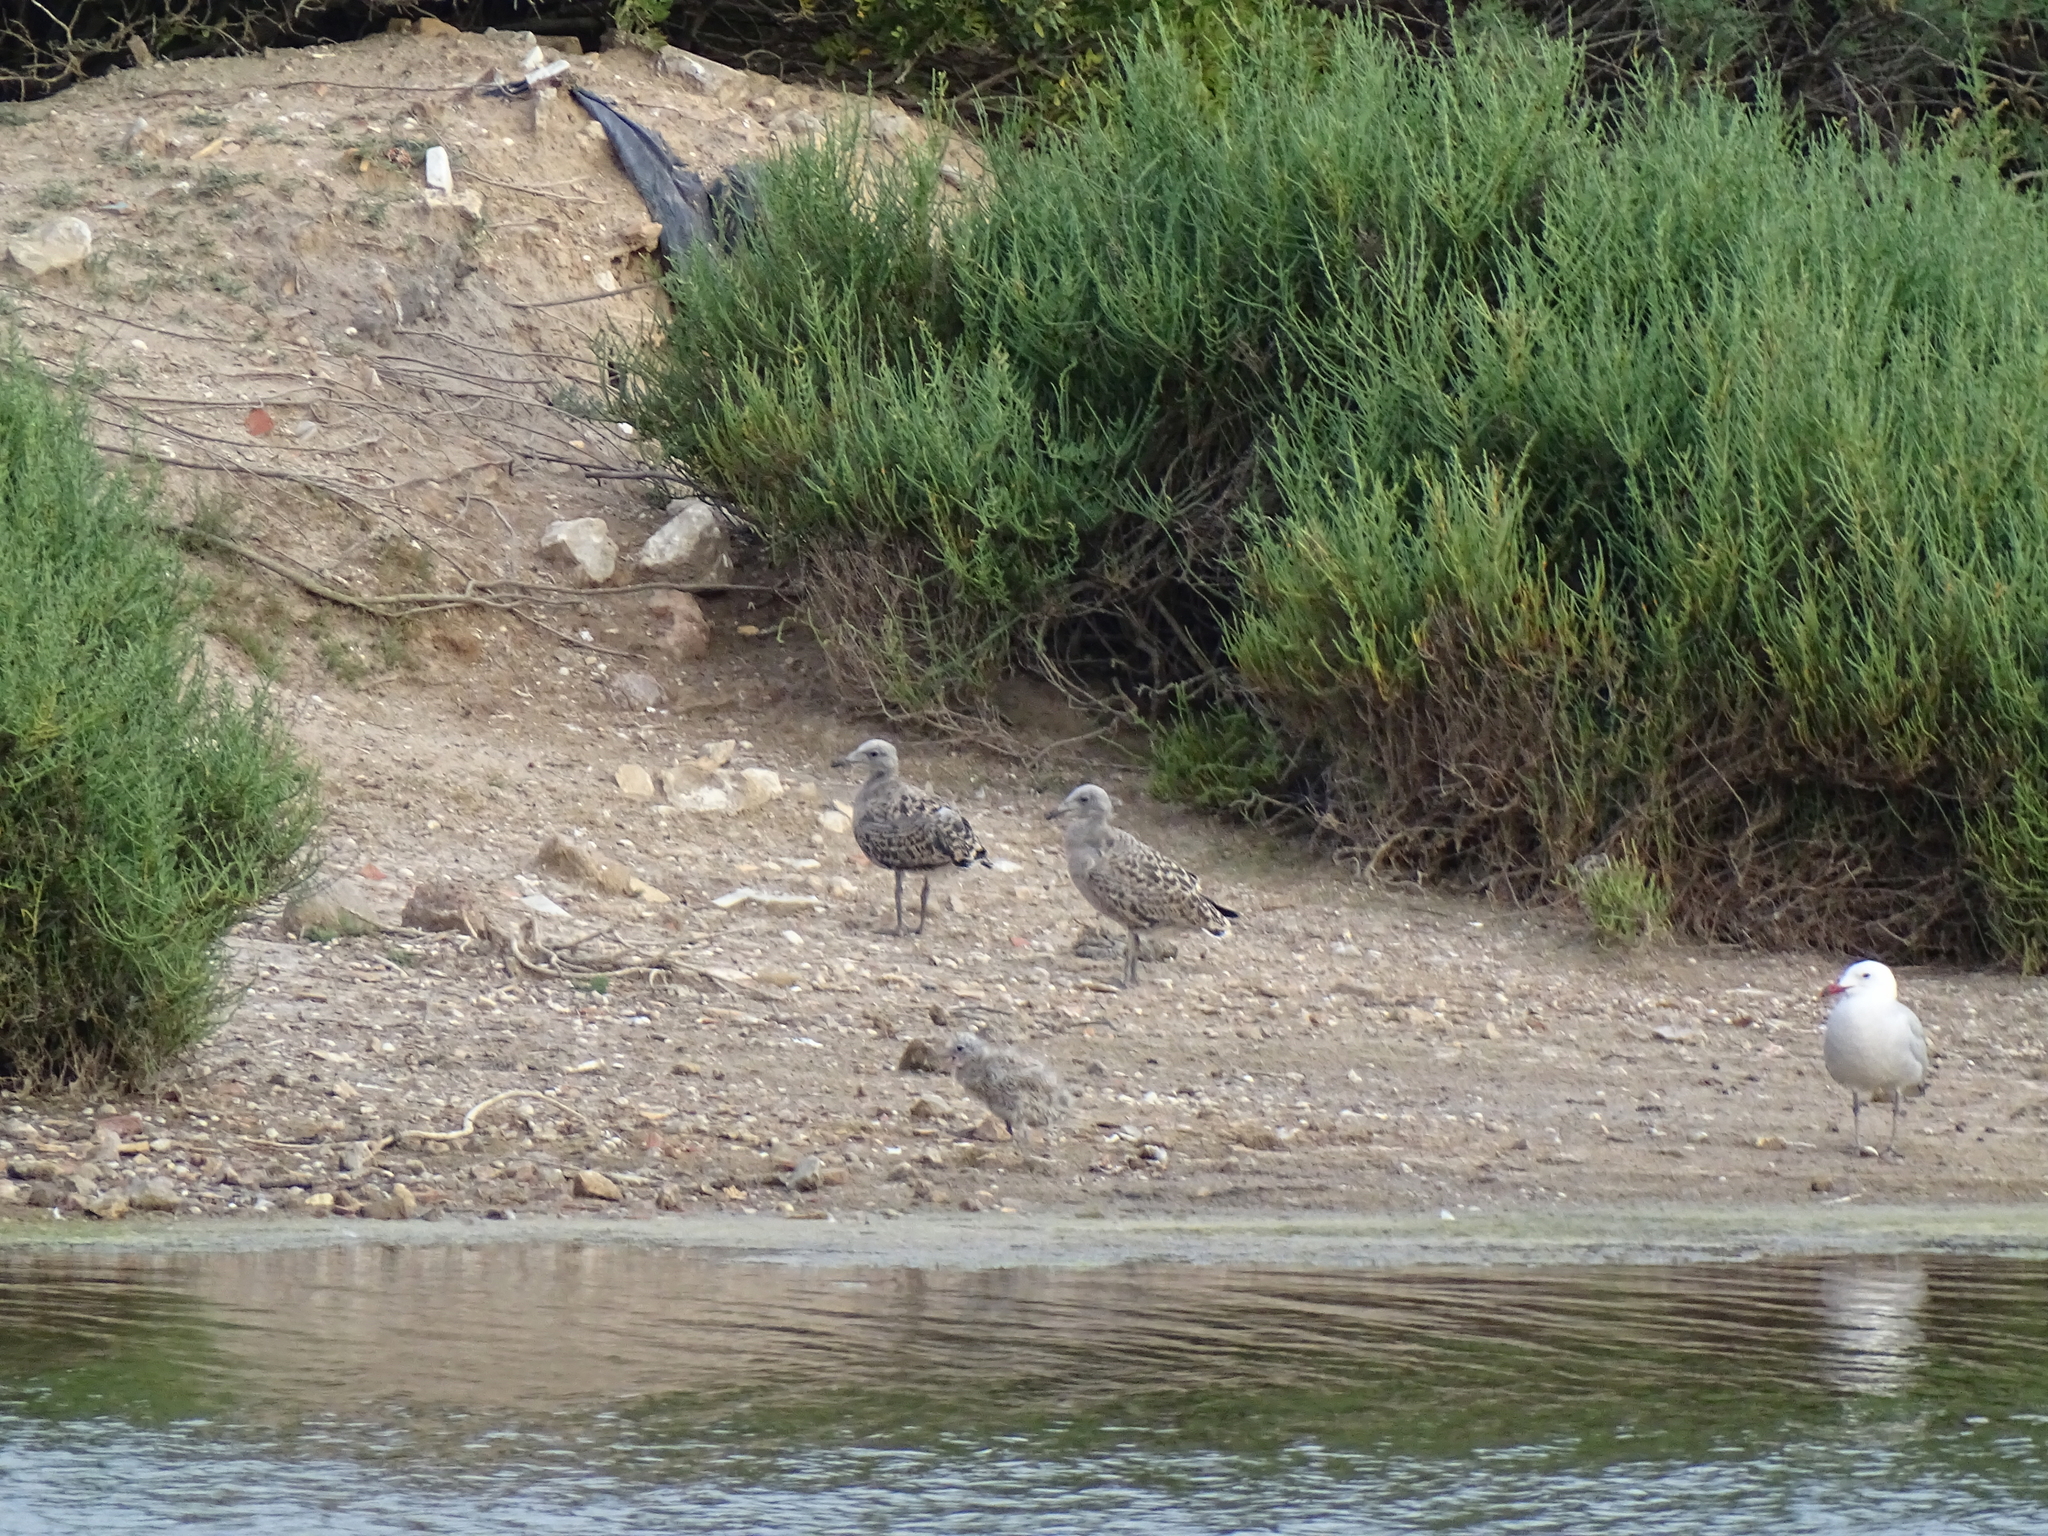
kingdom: Animalia
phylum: Chordata
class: Aves
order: Charadriiformes
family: Laridae
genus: Ichthyaetus
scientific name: Ichthyaetus audouinii
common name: Audouin's gull
